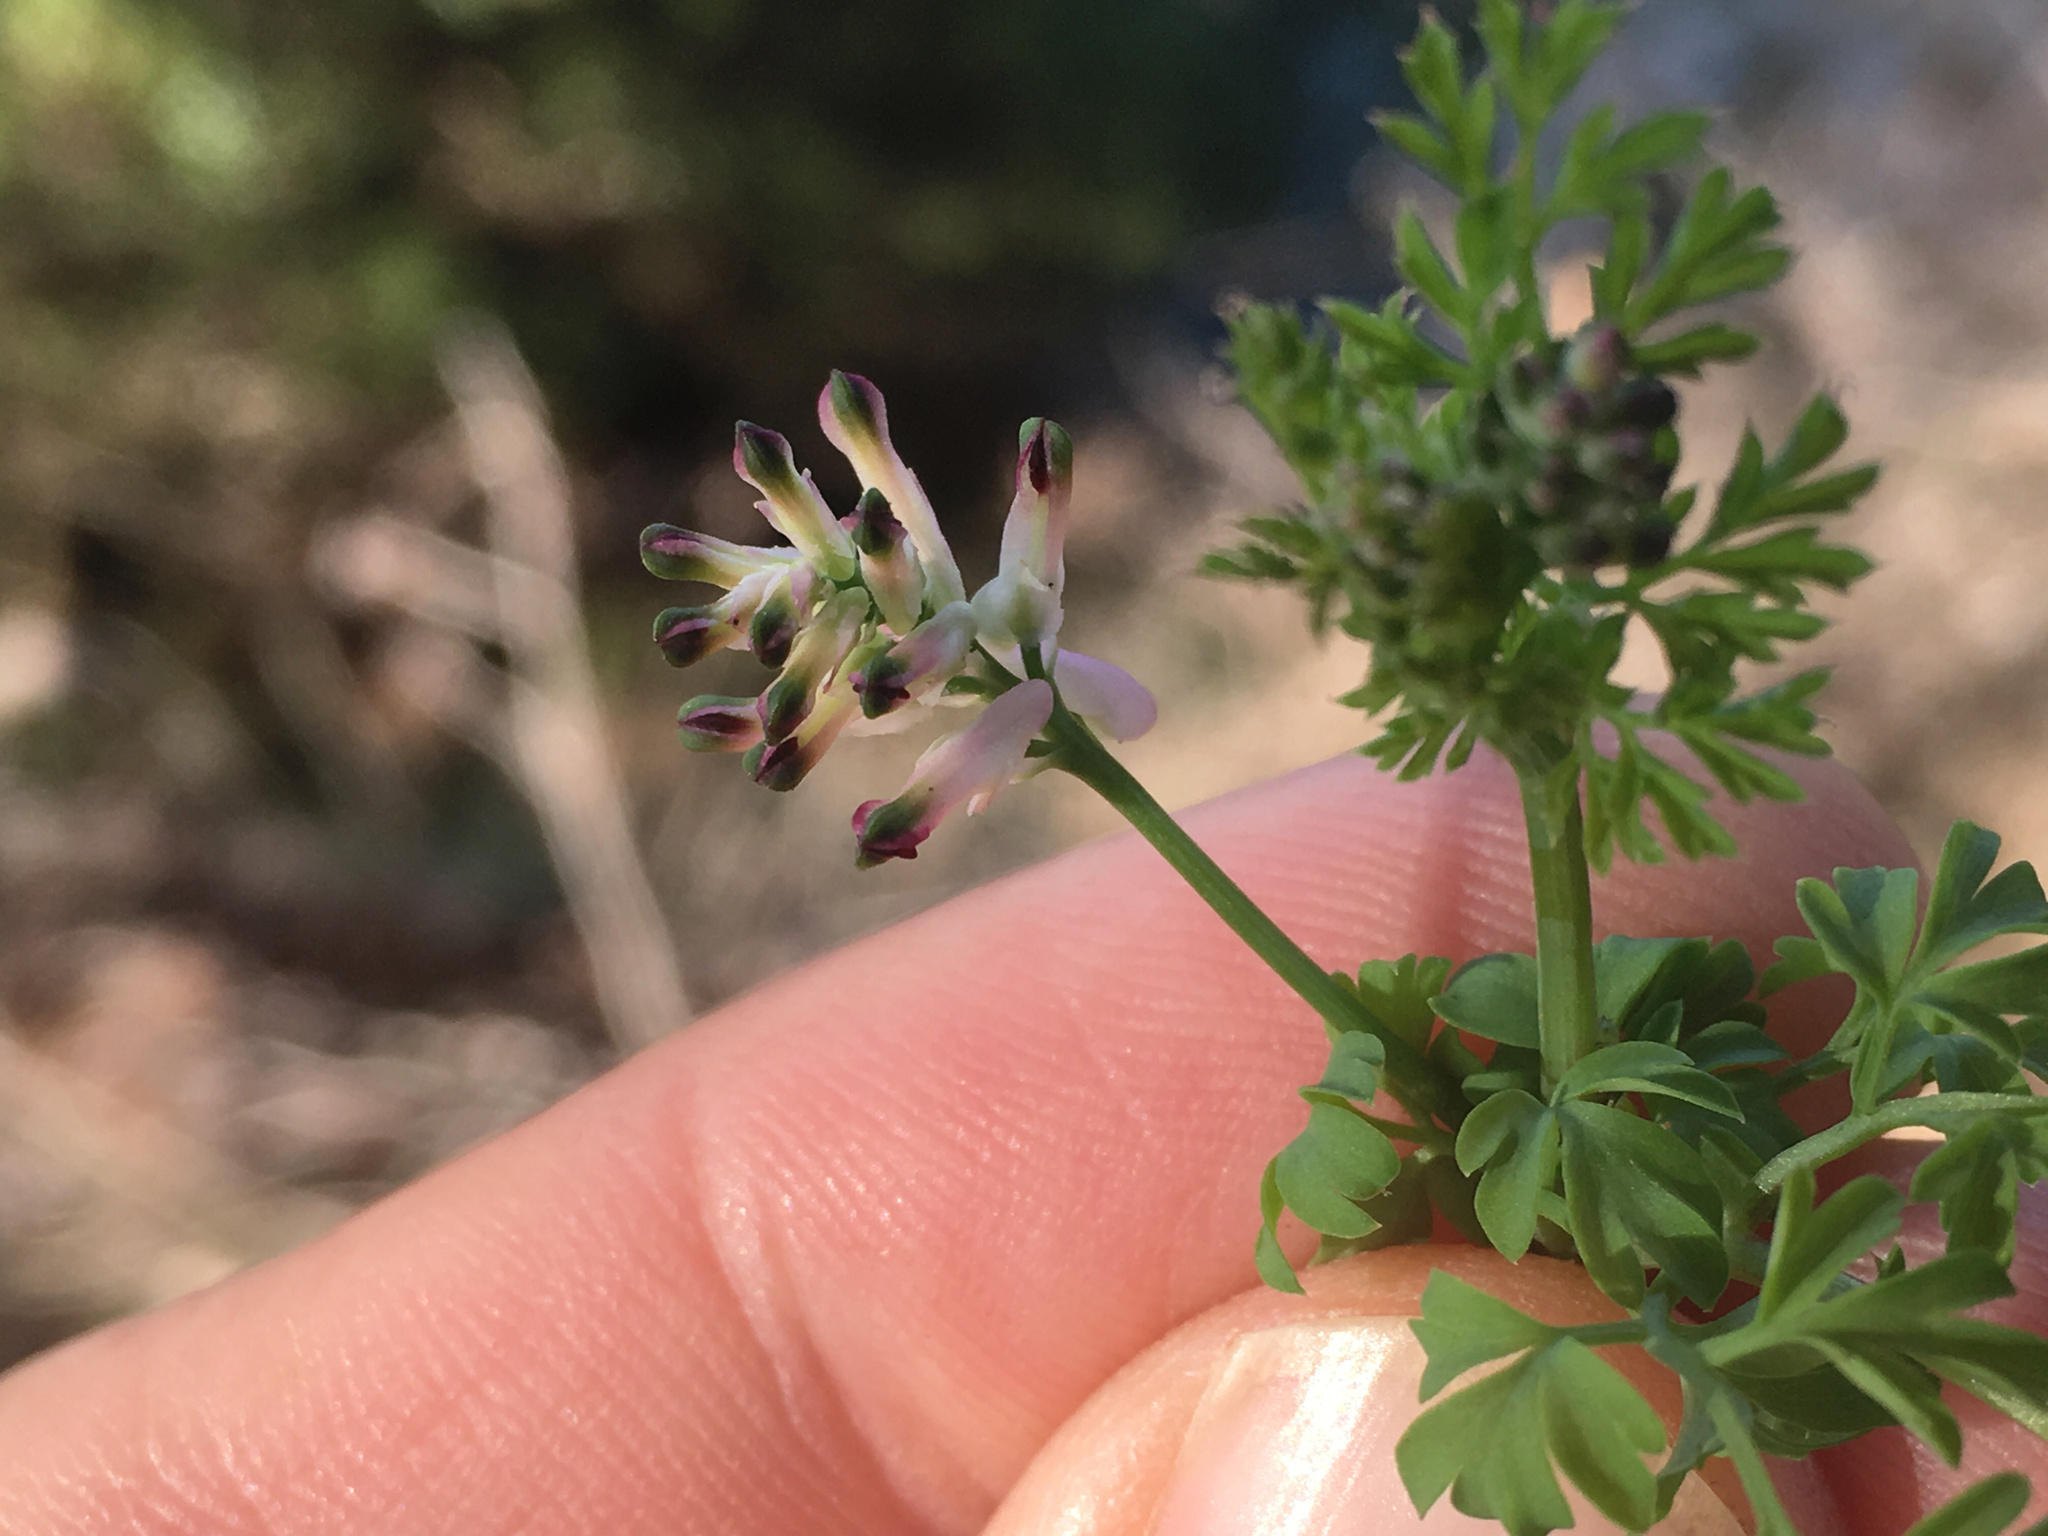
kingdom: Plantae
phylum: Tracheophyta
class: Magnoliopsida
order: Ranunculales
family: Papaveraceae
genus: Fumaria
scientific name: Fumaria muralis
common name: Common ramping-fumitory
